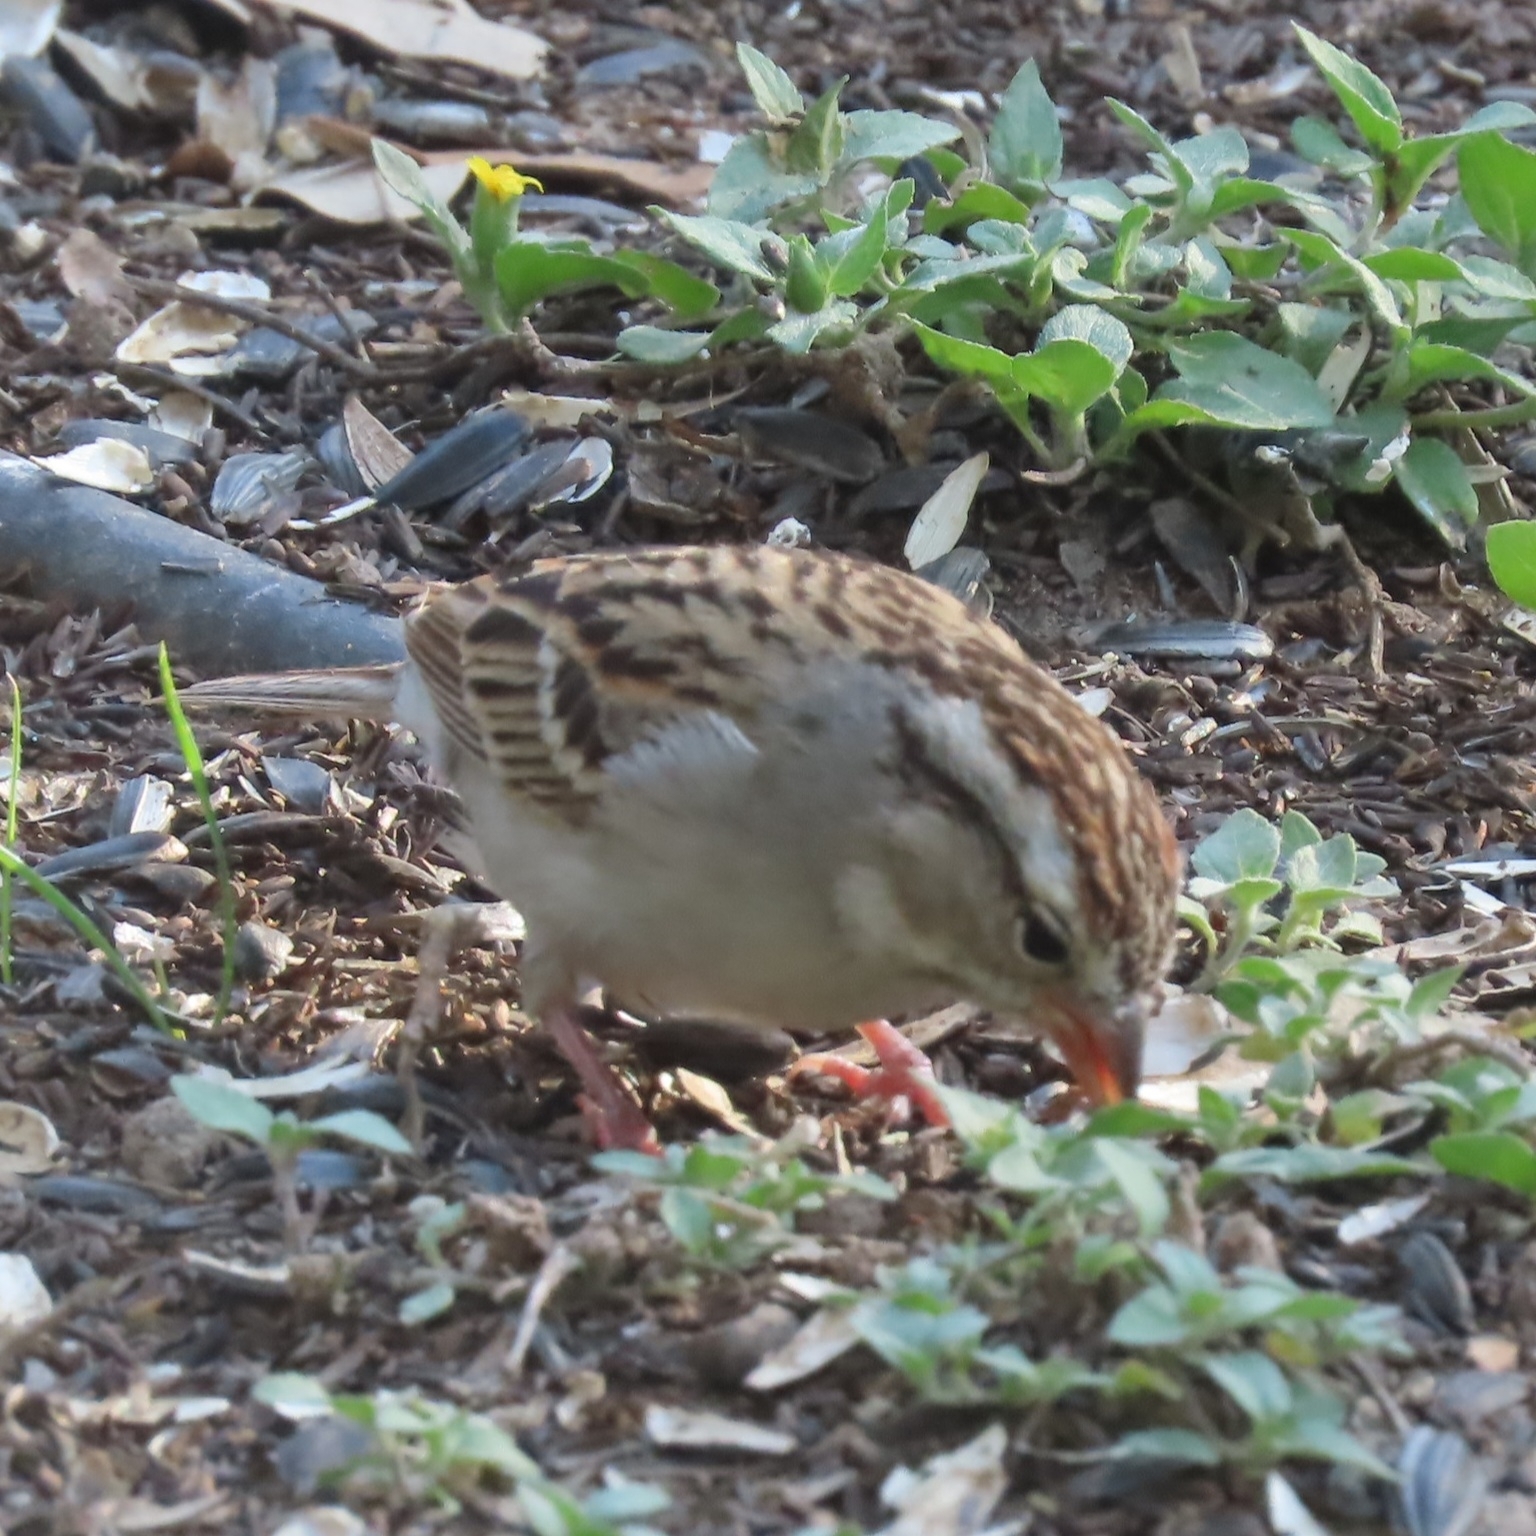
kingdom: Animalia
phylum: Chordata
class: Aves
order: Passeriformes
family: Passerellidae
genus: Spizella
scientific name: Spizella passerina
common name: Chipping sparrow
